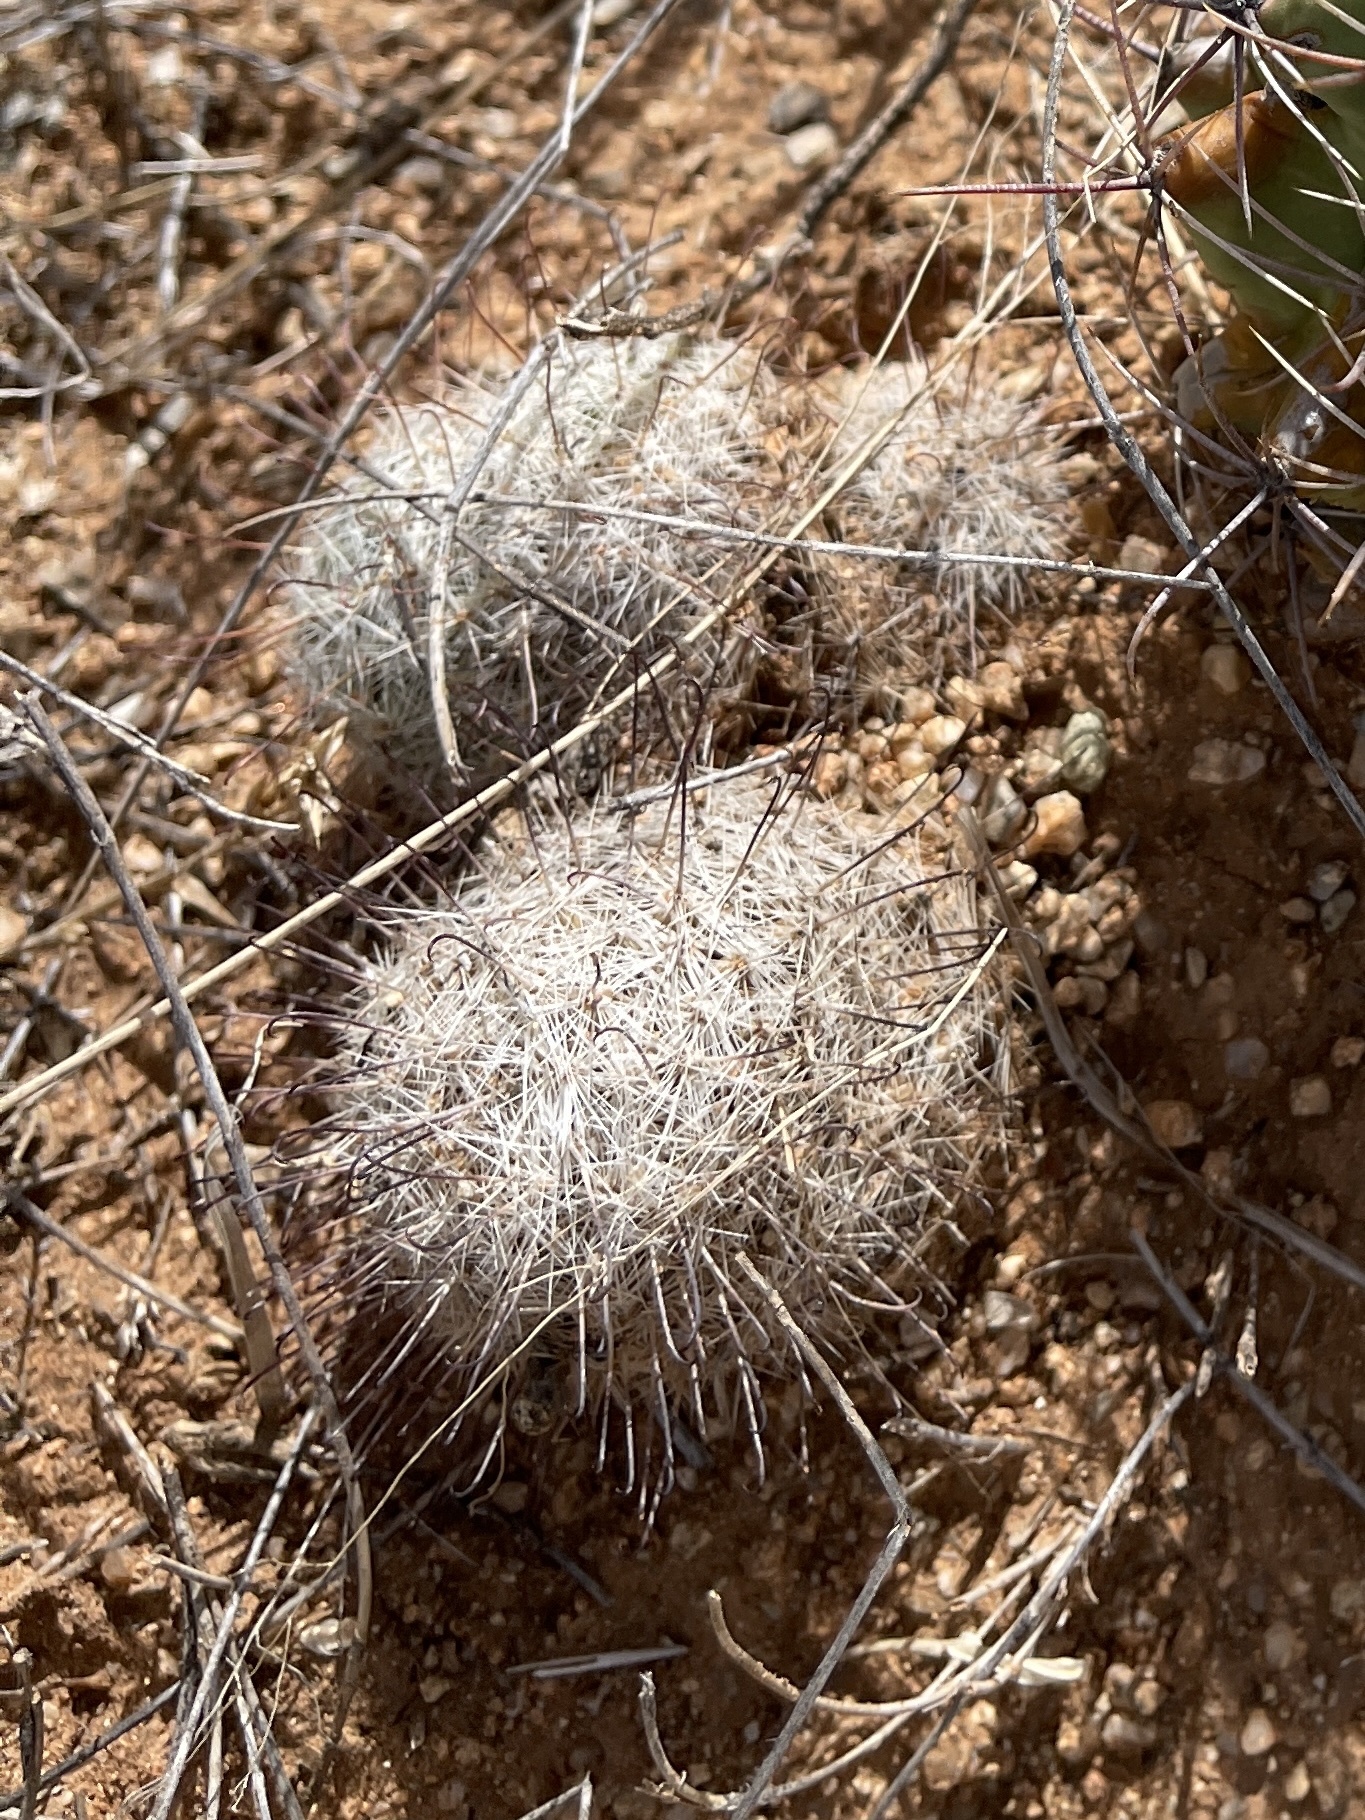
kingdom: Plantae
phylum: Tracheophyta
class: Magnoliopsida
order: Caryophyllales
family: Cactaceae
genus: Cochemiea
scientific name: Cochemiea grahamii
